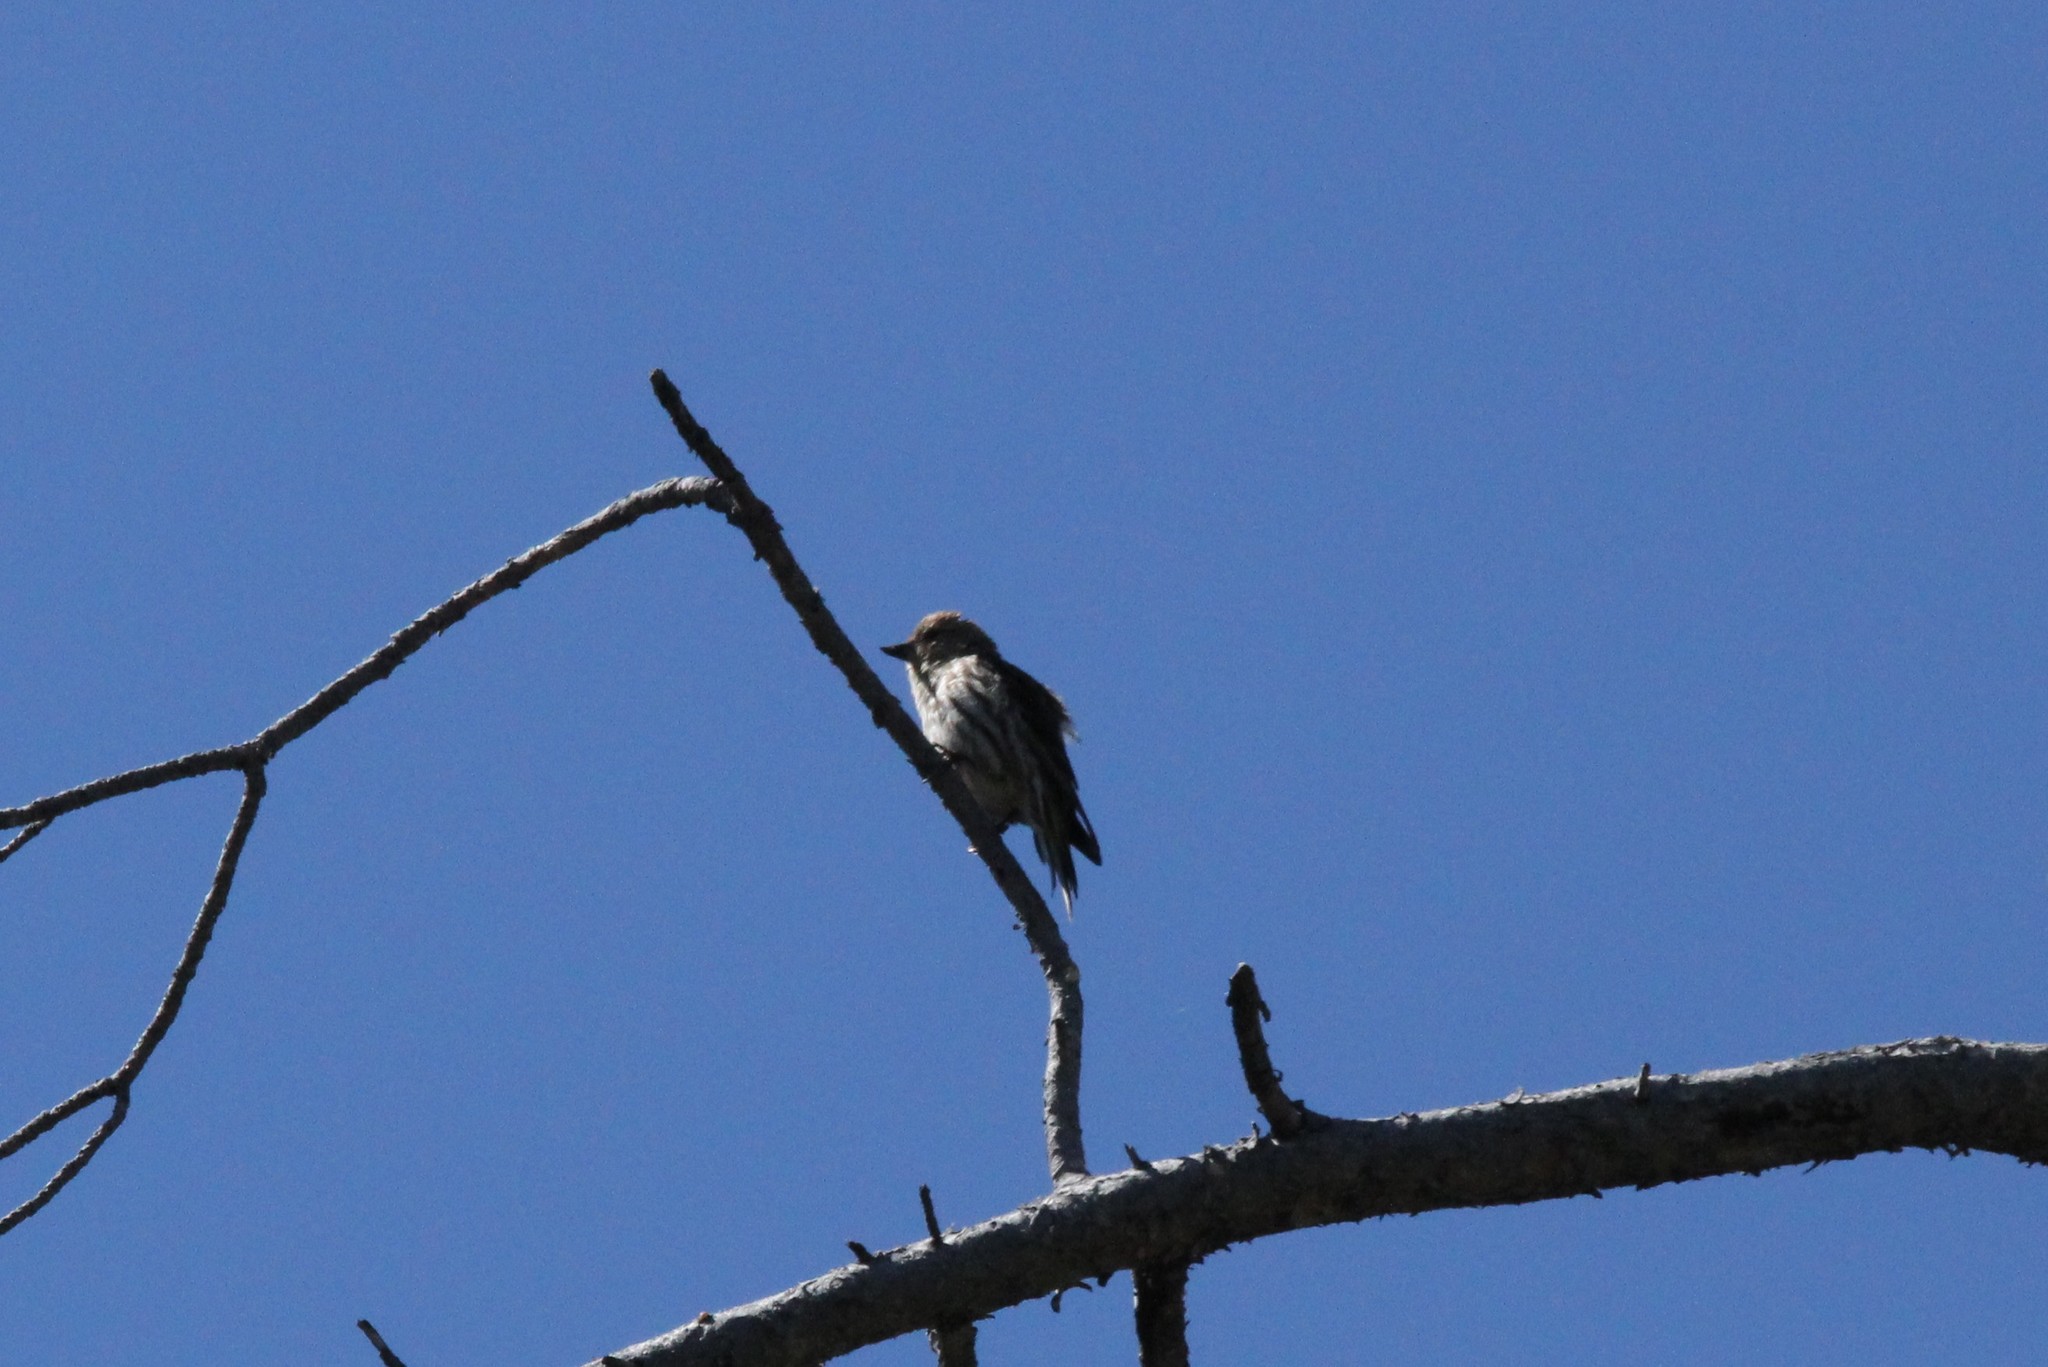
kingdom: Animalia
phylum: Chordata
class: Aves
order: Passeriformes
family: Fringillidae
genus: Spinus
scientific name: Spinus pinus
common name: Pine siskin
